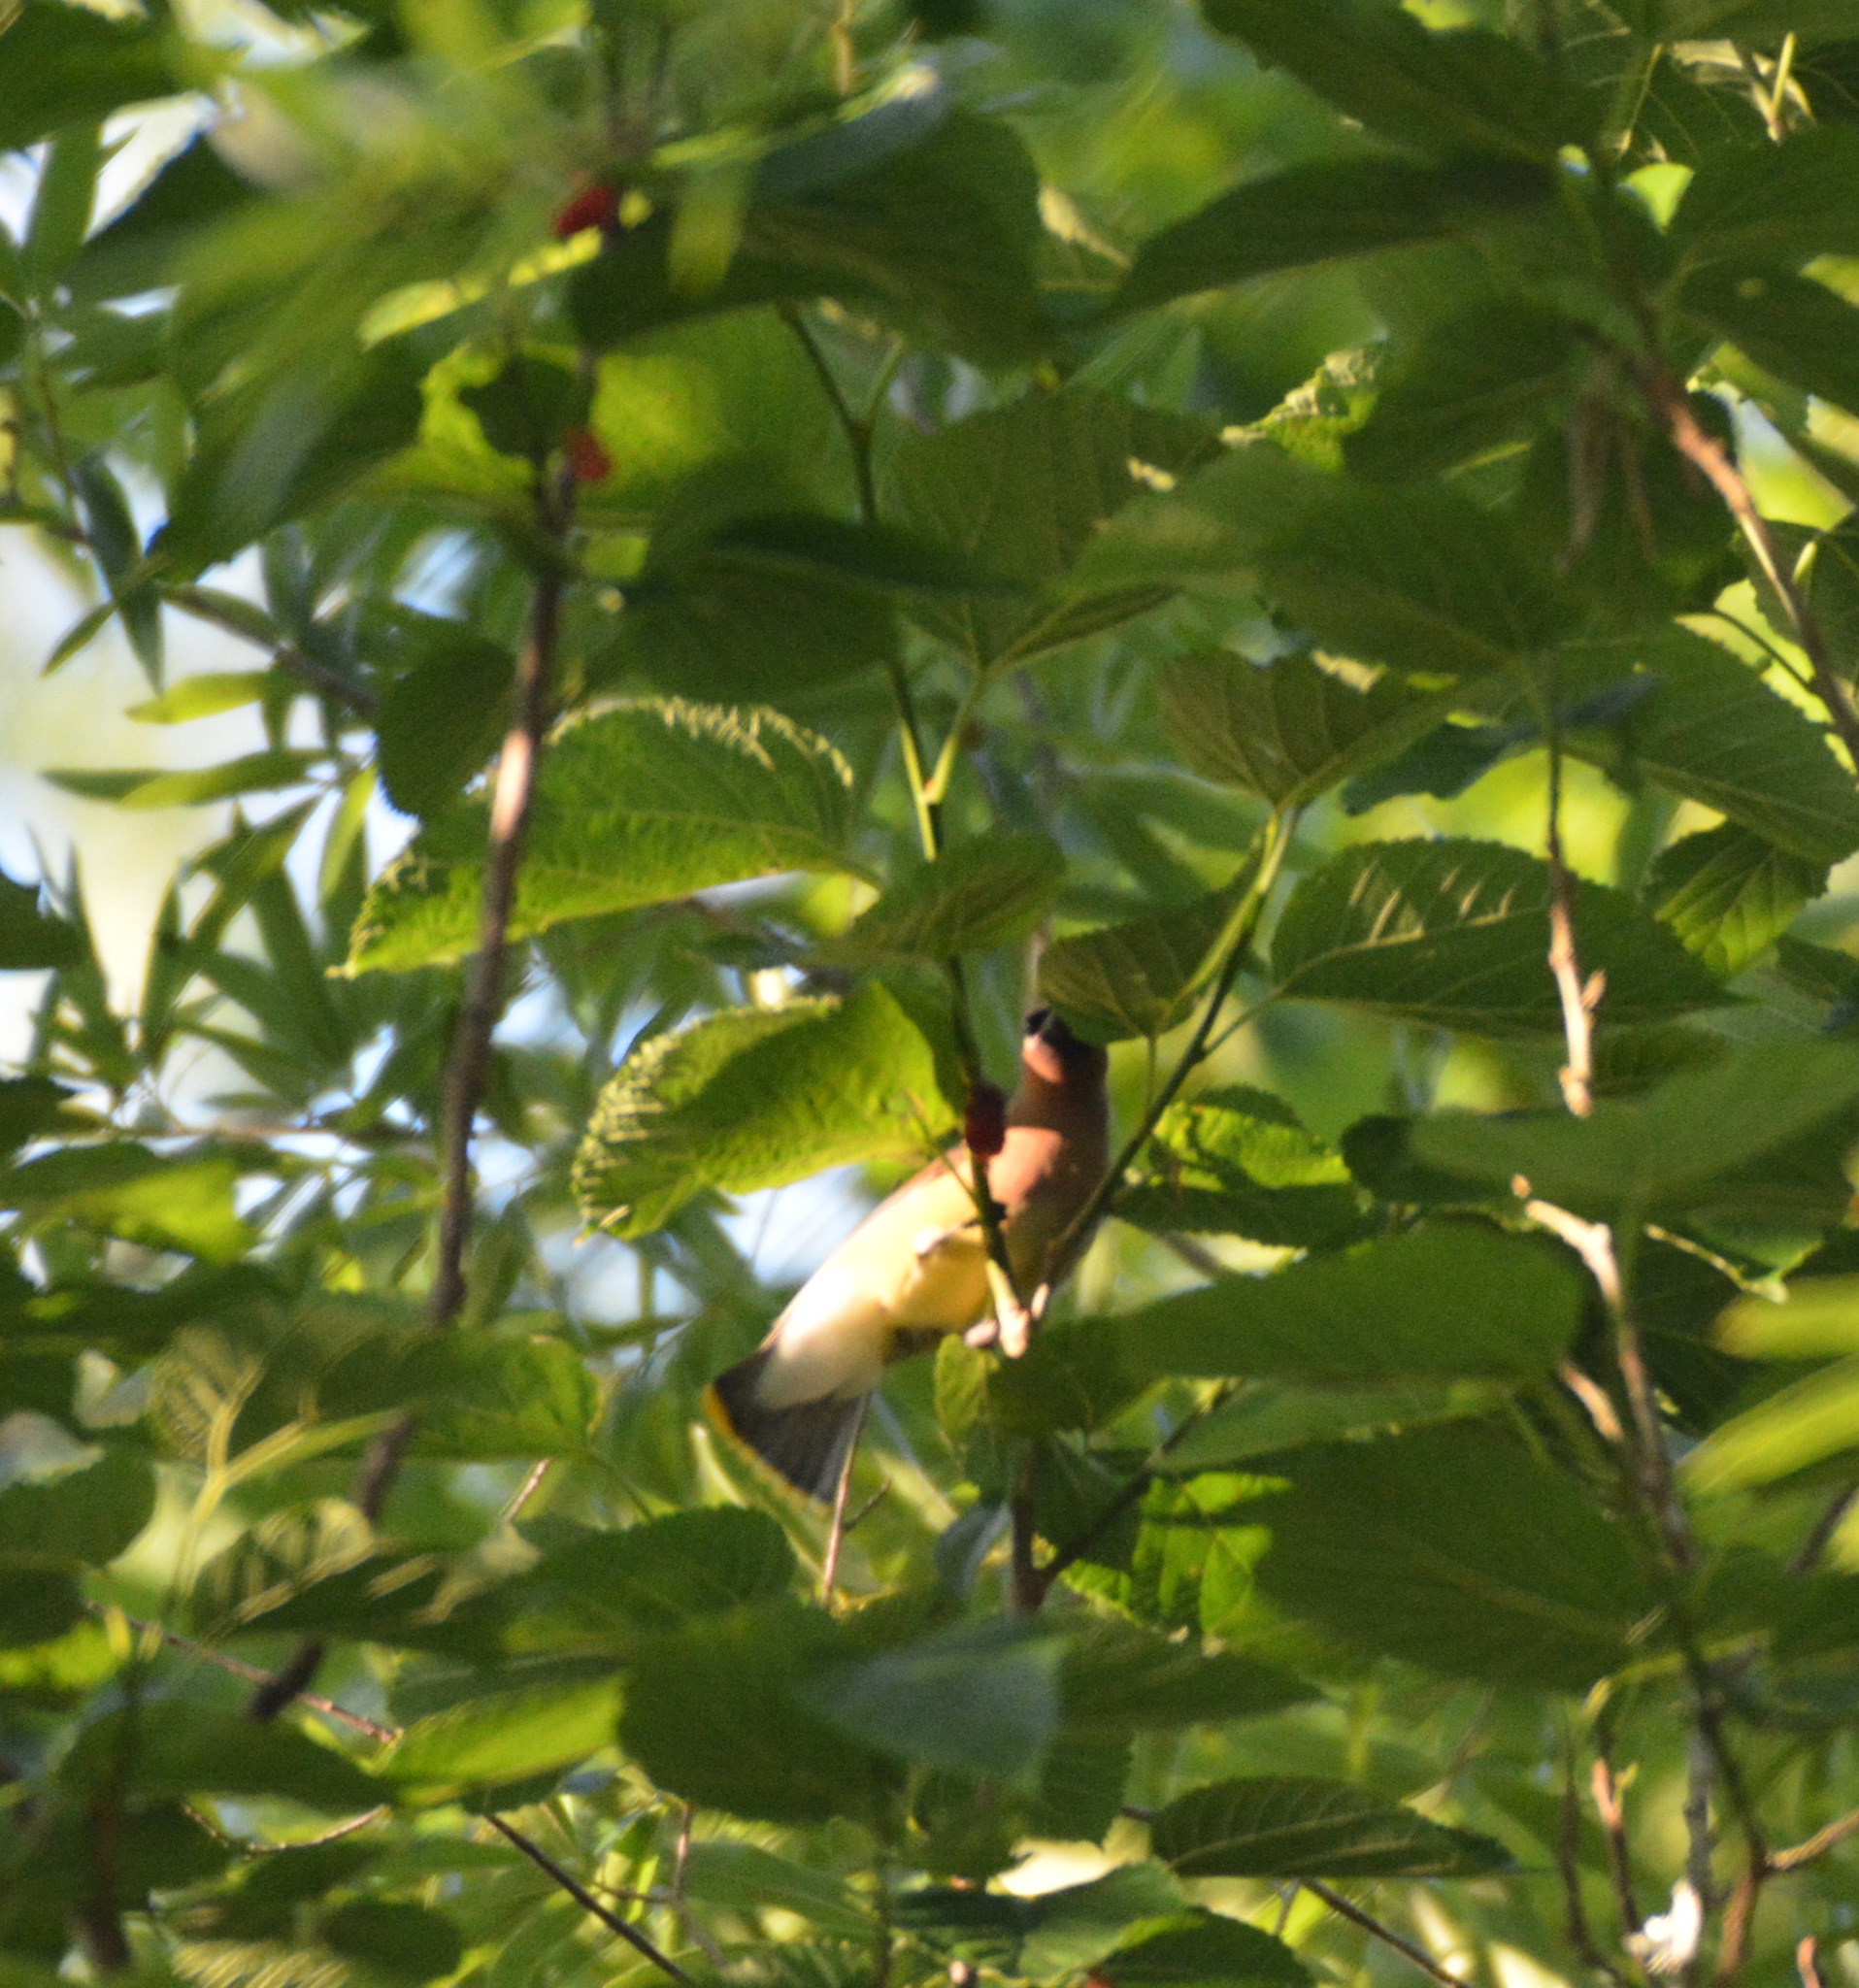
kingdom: Animalia
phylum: Chordata
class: Aves
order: Passeriformes
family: Bombycillidae
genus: Bombycilla
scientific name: Bombycilla cedrorum
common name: Cedar waxwing
